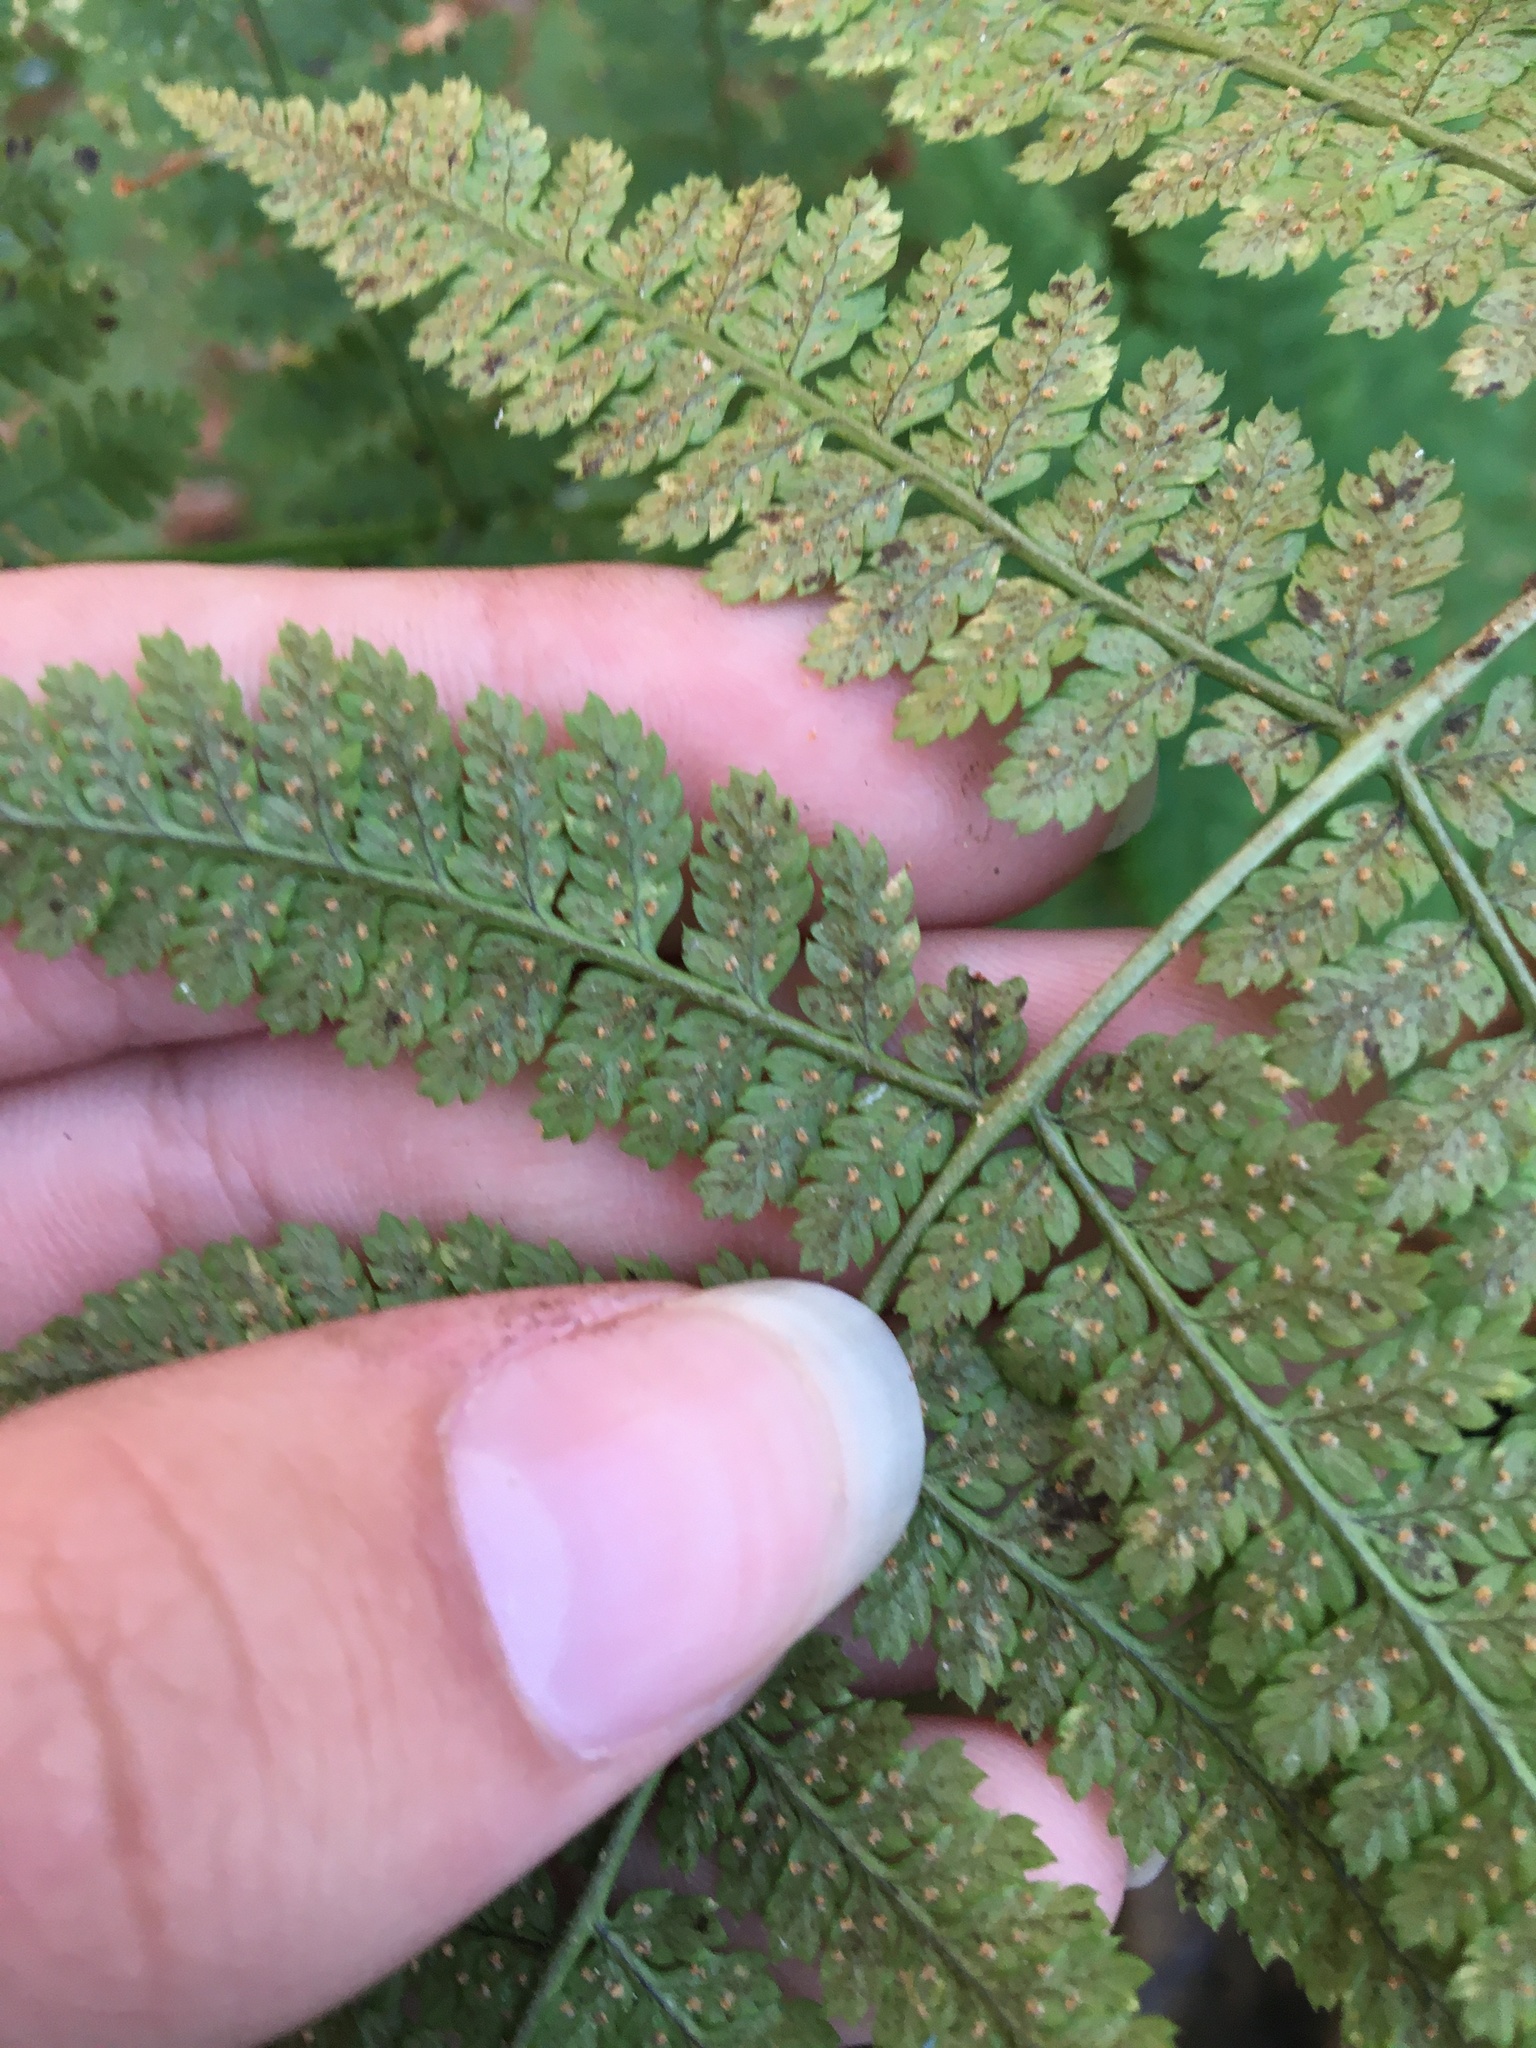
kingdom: Plantae
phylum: Tracheophyta
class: Polypodiopsida
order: Polypodiales
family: Dryopteridaceae
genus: Dryopteris
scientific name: Dryopteris intermedia
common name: Evergreen wood fern
